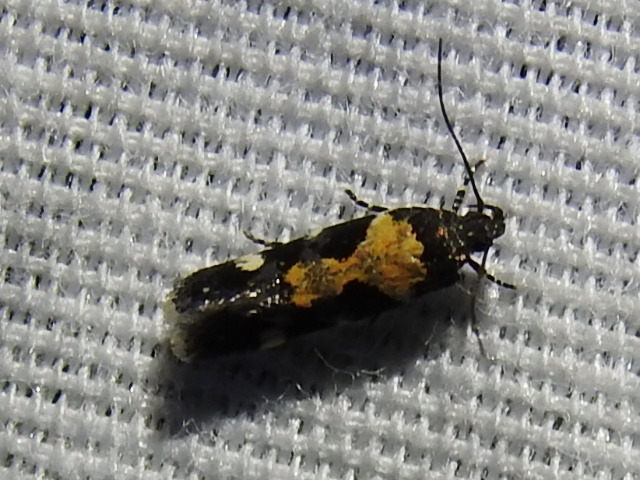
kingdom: Animalia
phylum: Arthropoda
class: Insecta
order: Lepidoptera
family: Gelechiidae
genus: Stegasta
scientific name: Stegasta bosqueella
